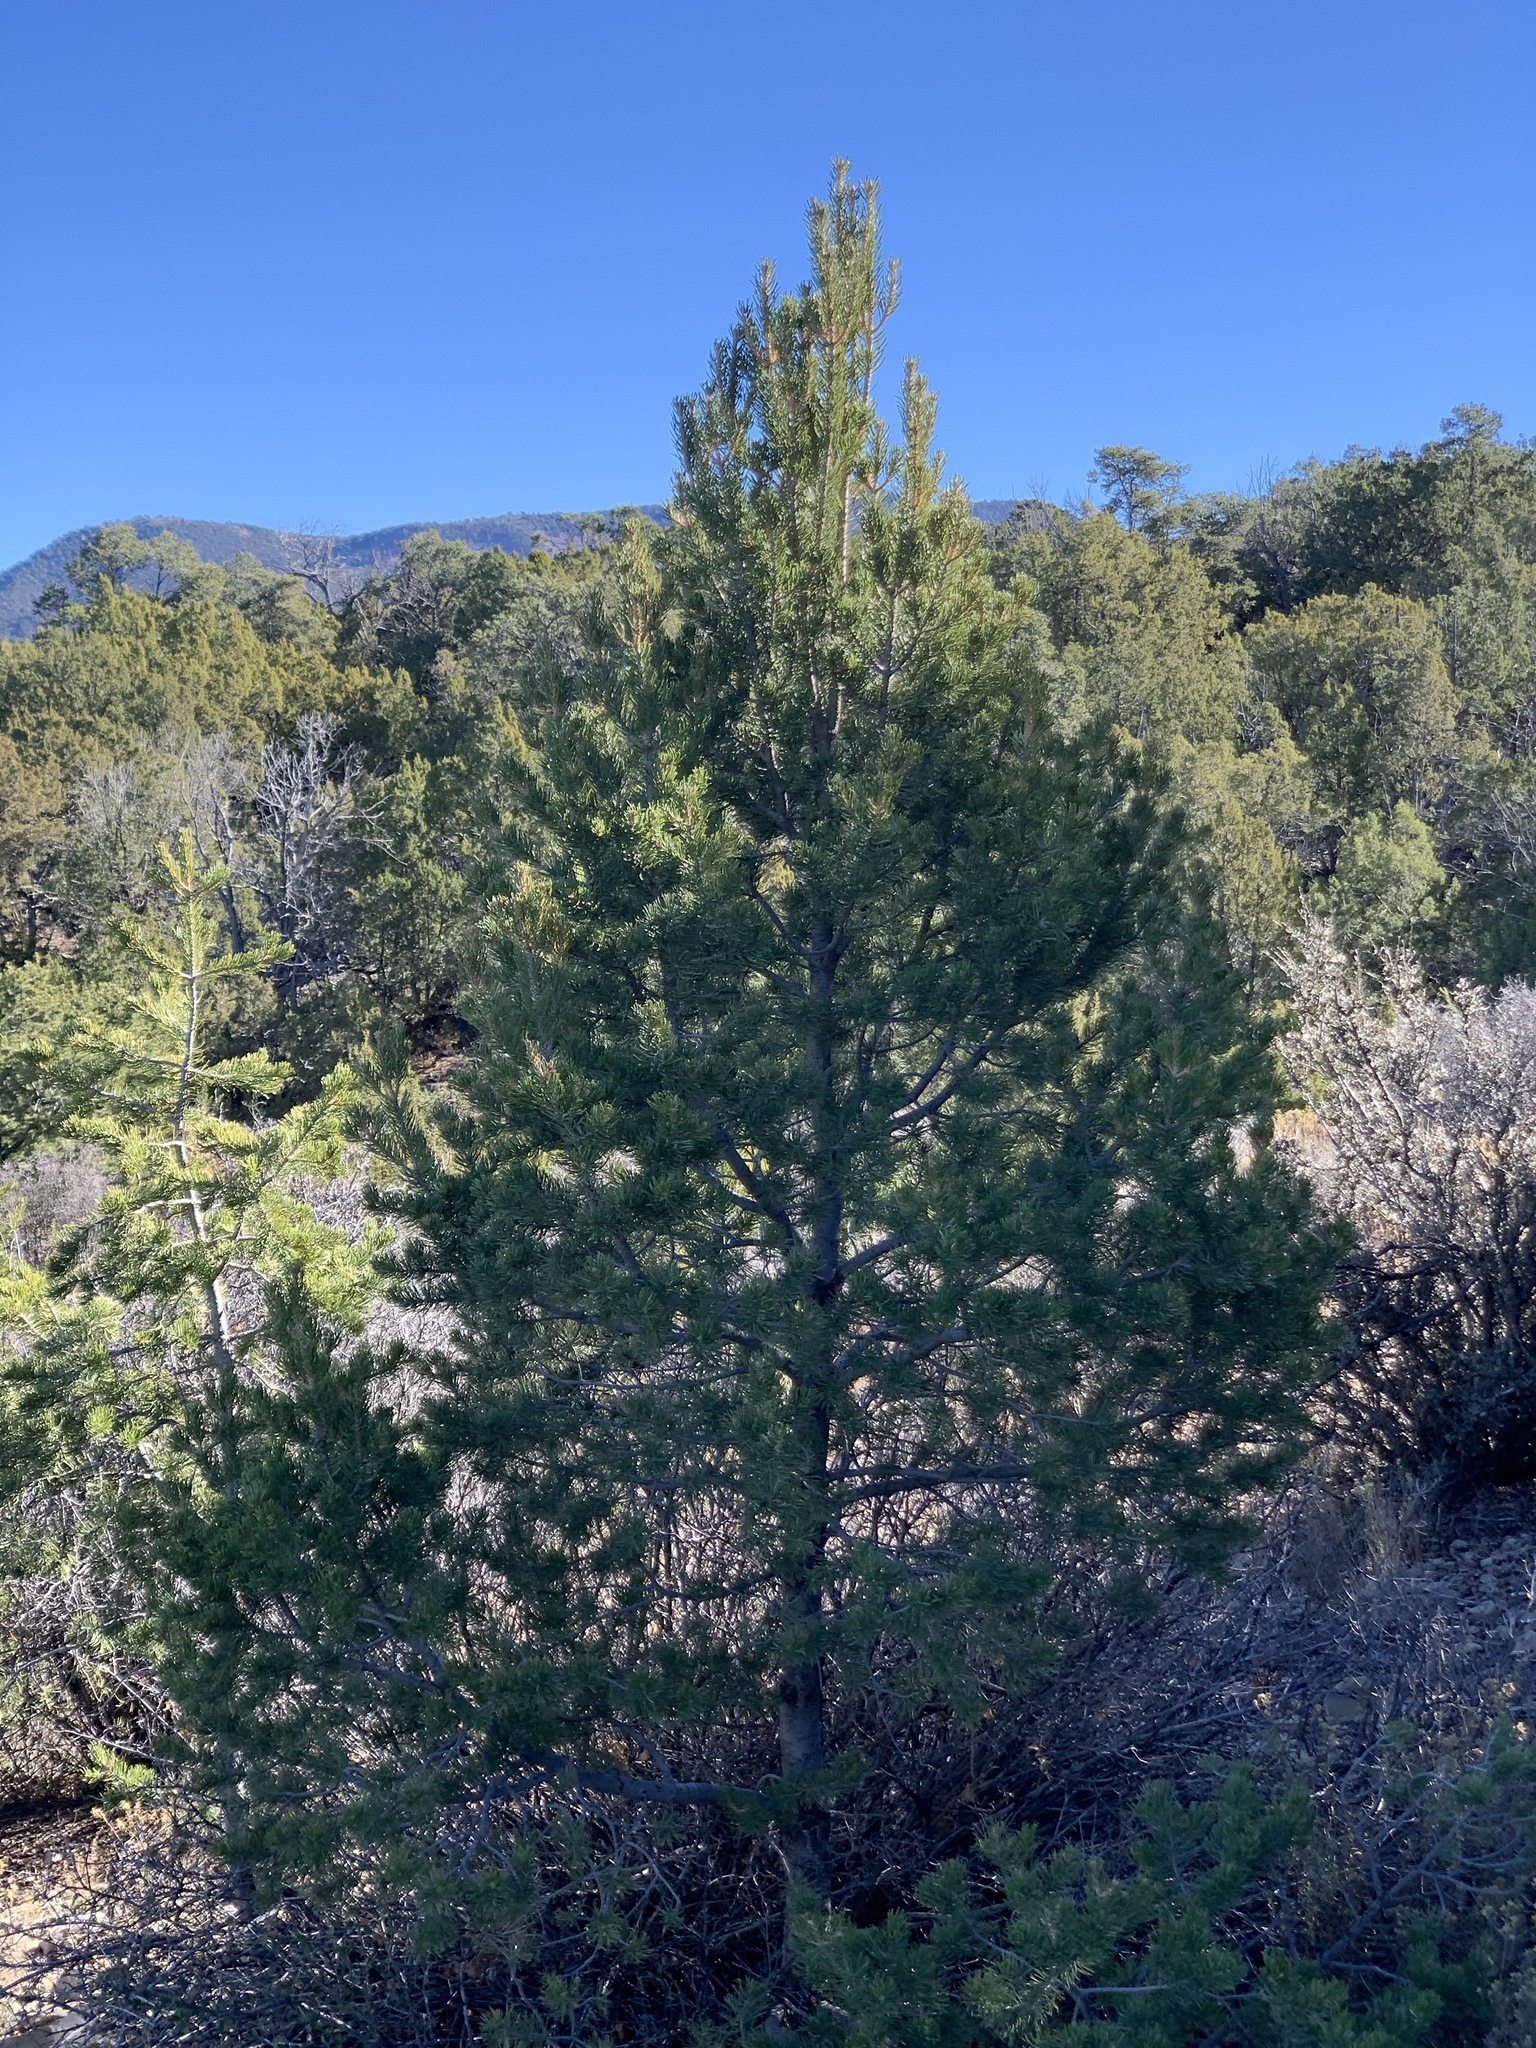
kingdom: Plantae
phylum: Tracheophyta
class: Pinopsida
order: Pinales
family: Pinaceae
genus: Pinus
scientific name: Pinus edulis
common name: Colorado pinyon
